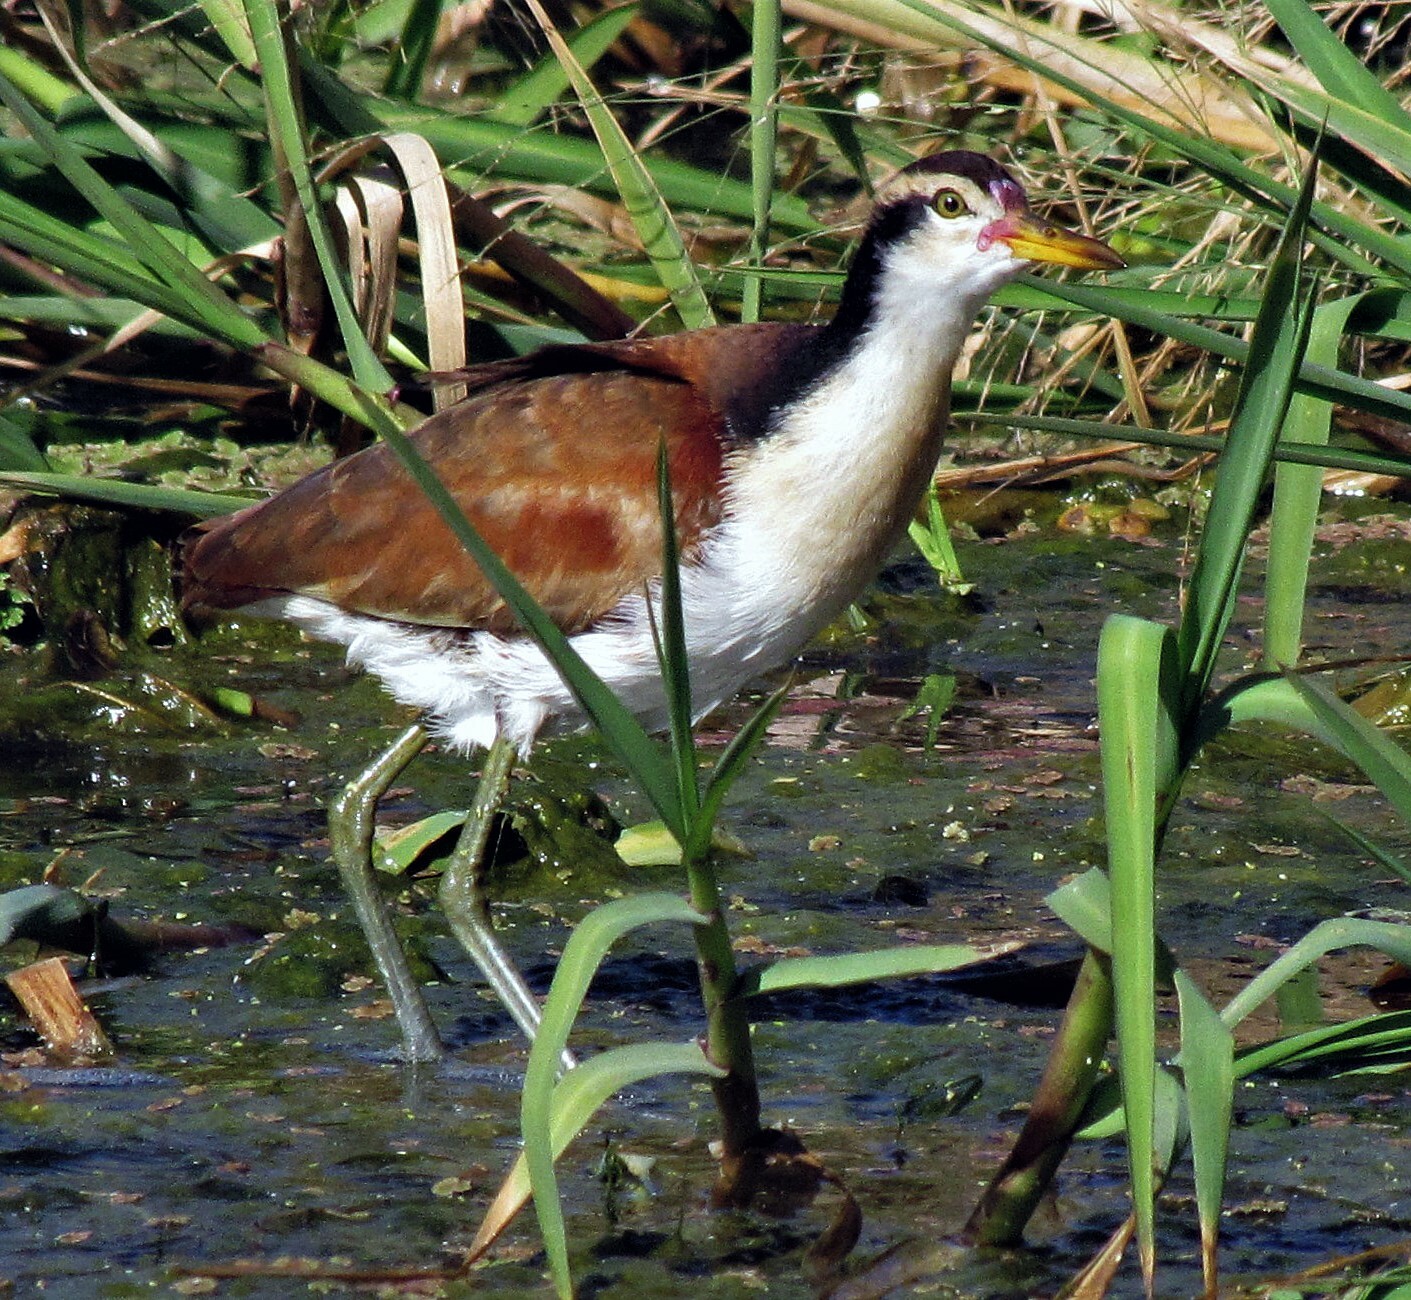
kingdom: Animalia
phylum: Chordata
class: Aves
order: Charadriiformes
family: Jacanidae
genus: Jacana
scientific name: Jacana jacana
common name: Wattled jacana
